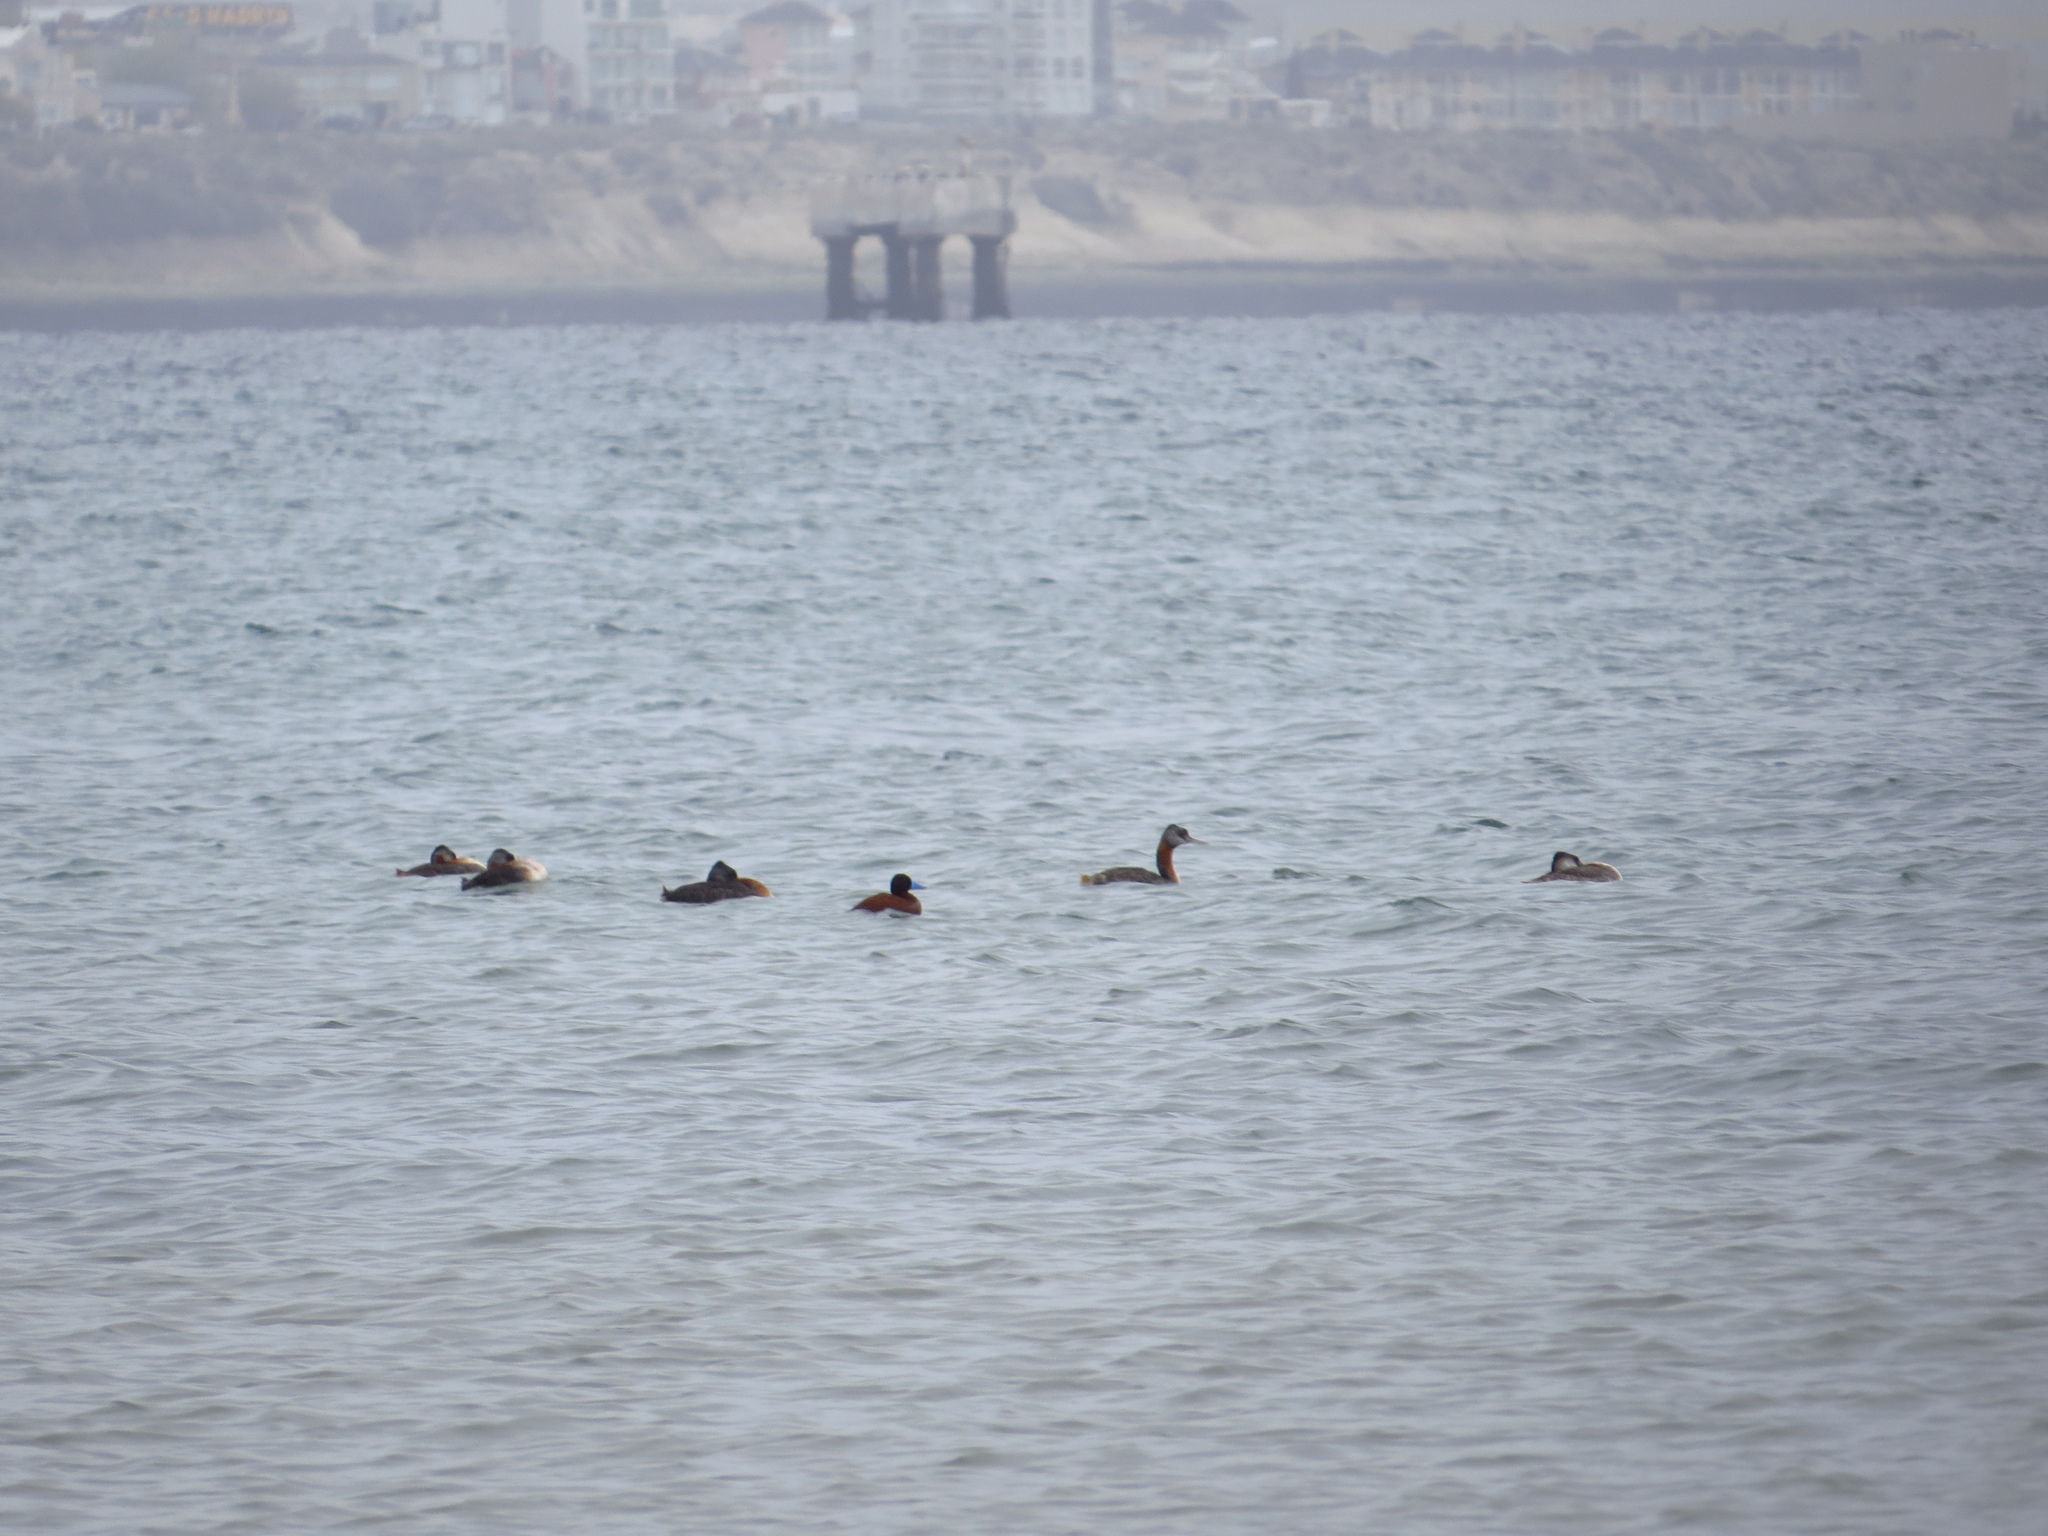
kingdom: Animalia
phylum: Chordata
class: Aves
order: Anseriformes
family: Anatidae
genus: Oxyura
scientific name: Oxyura vittata
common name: Lake duck
